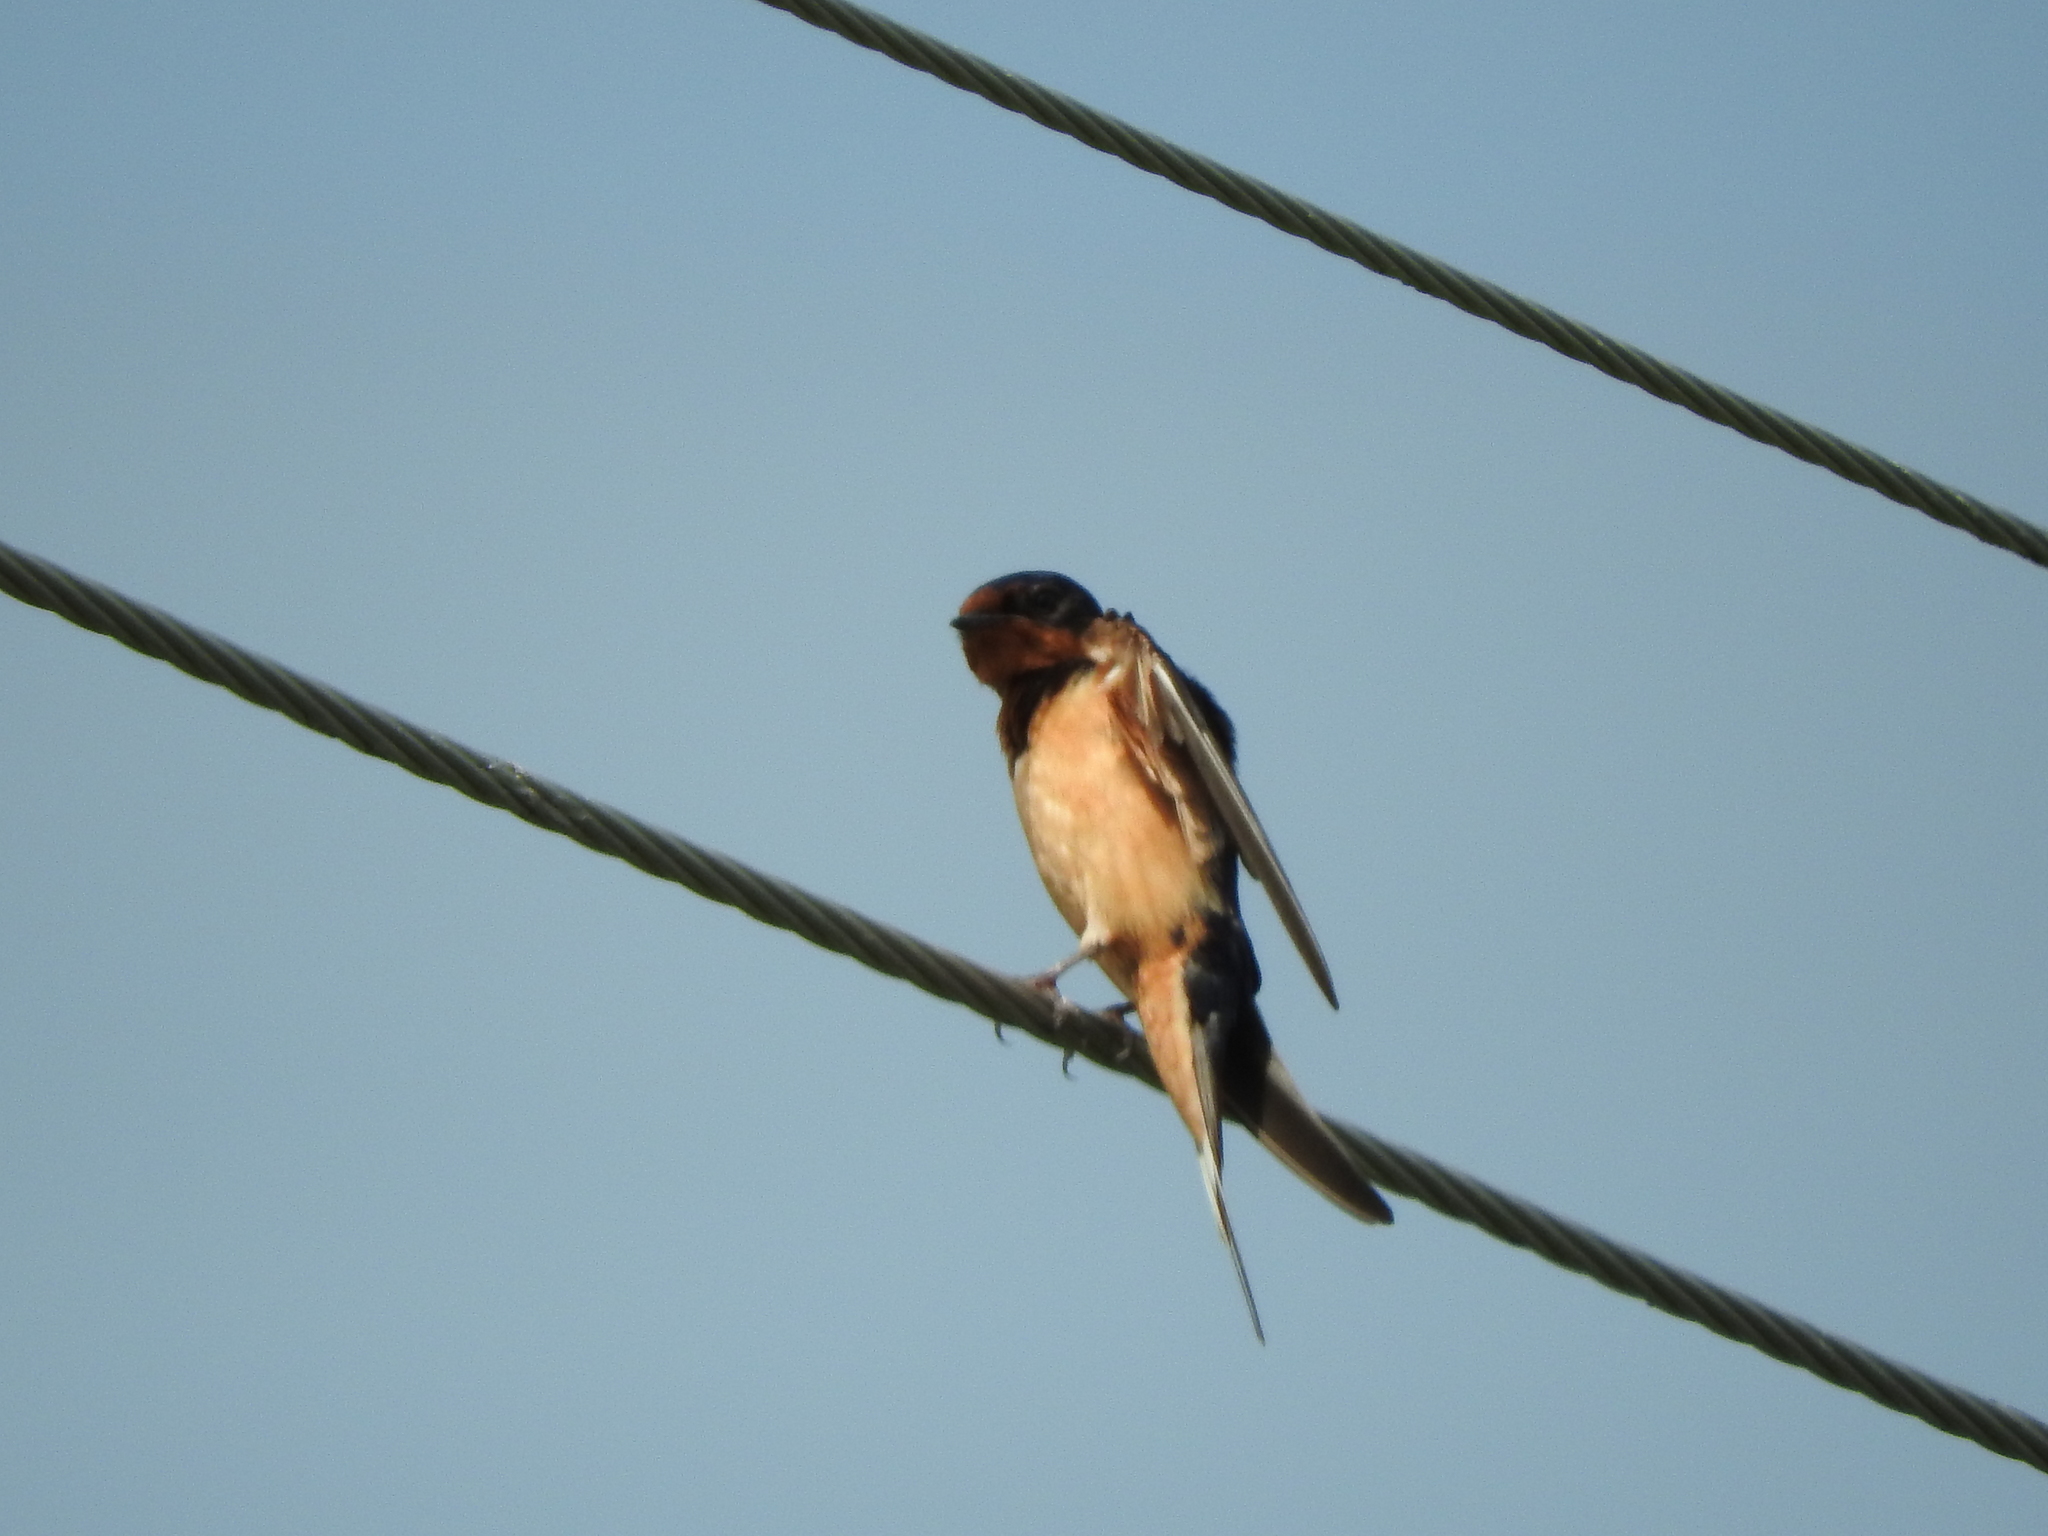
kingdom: Animalia
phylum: Chordata
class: Aves
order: Passeriformes
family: Hirundinidae
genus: Hirundo
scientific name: Hirundo rustica
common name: Barn swallow
